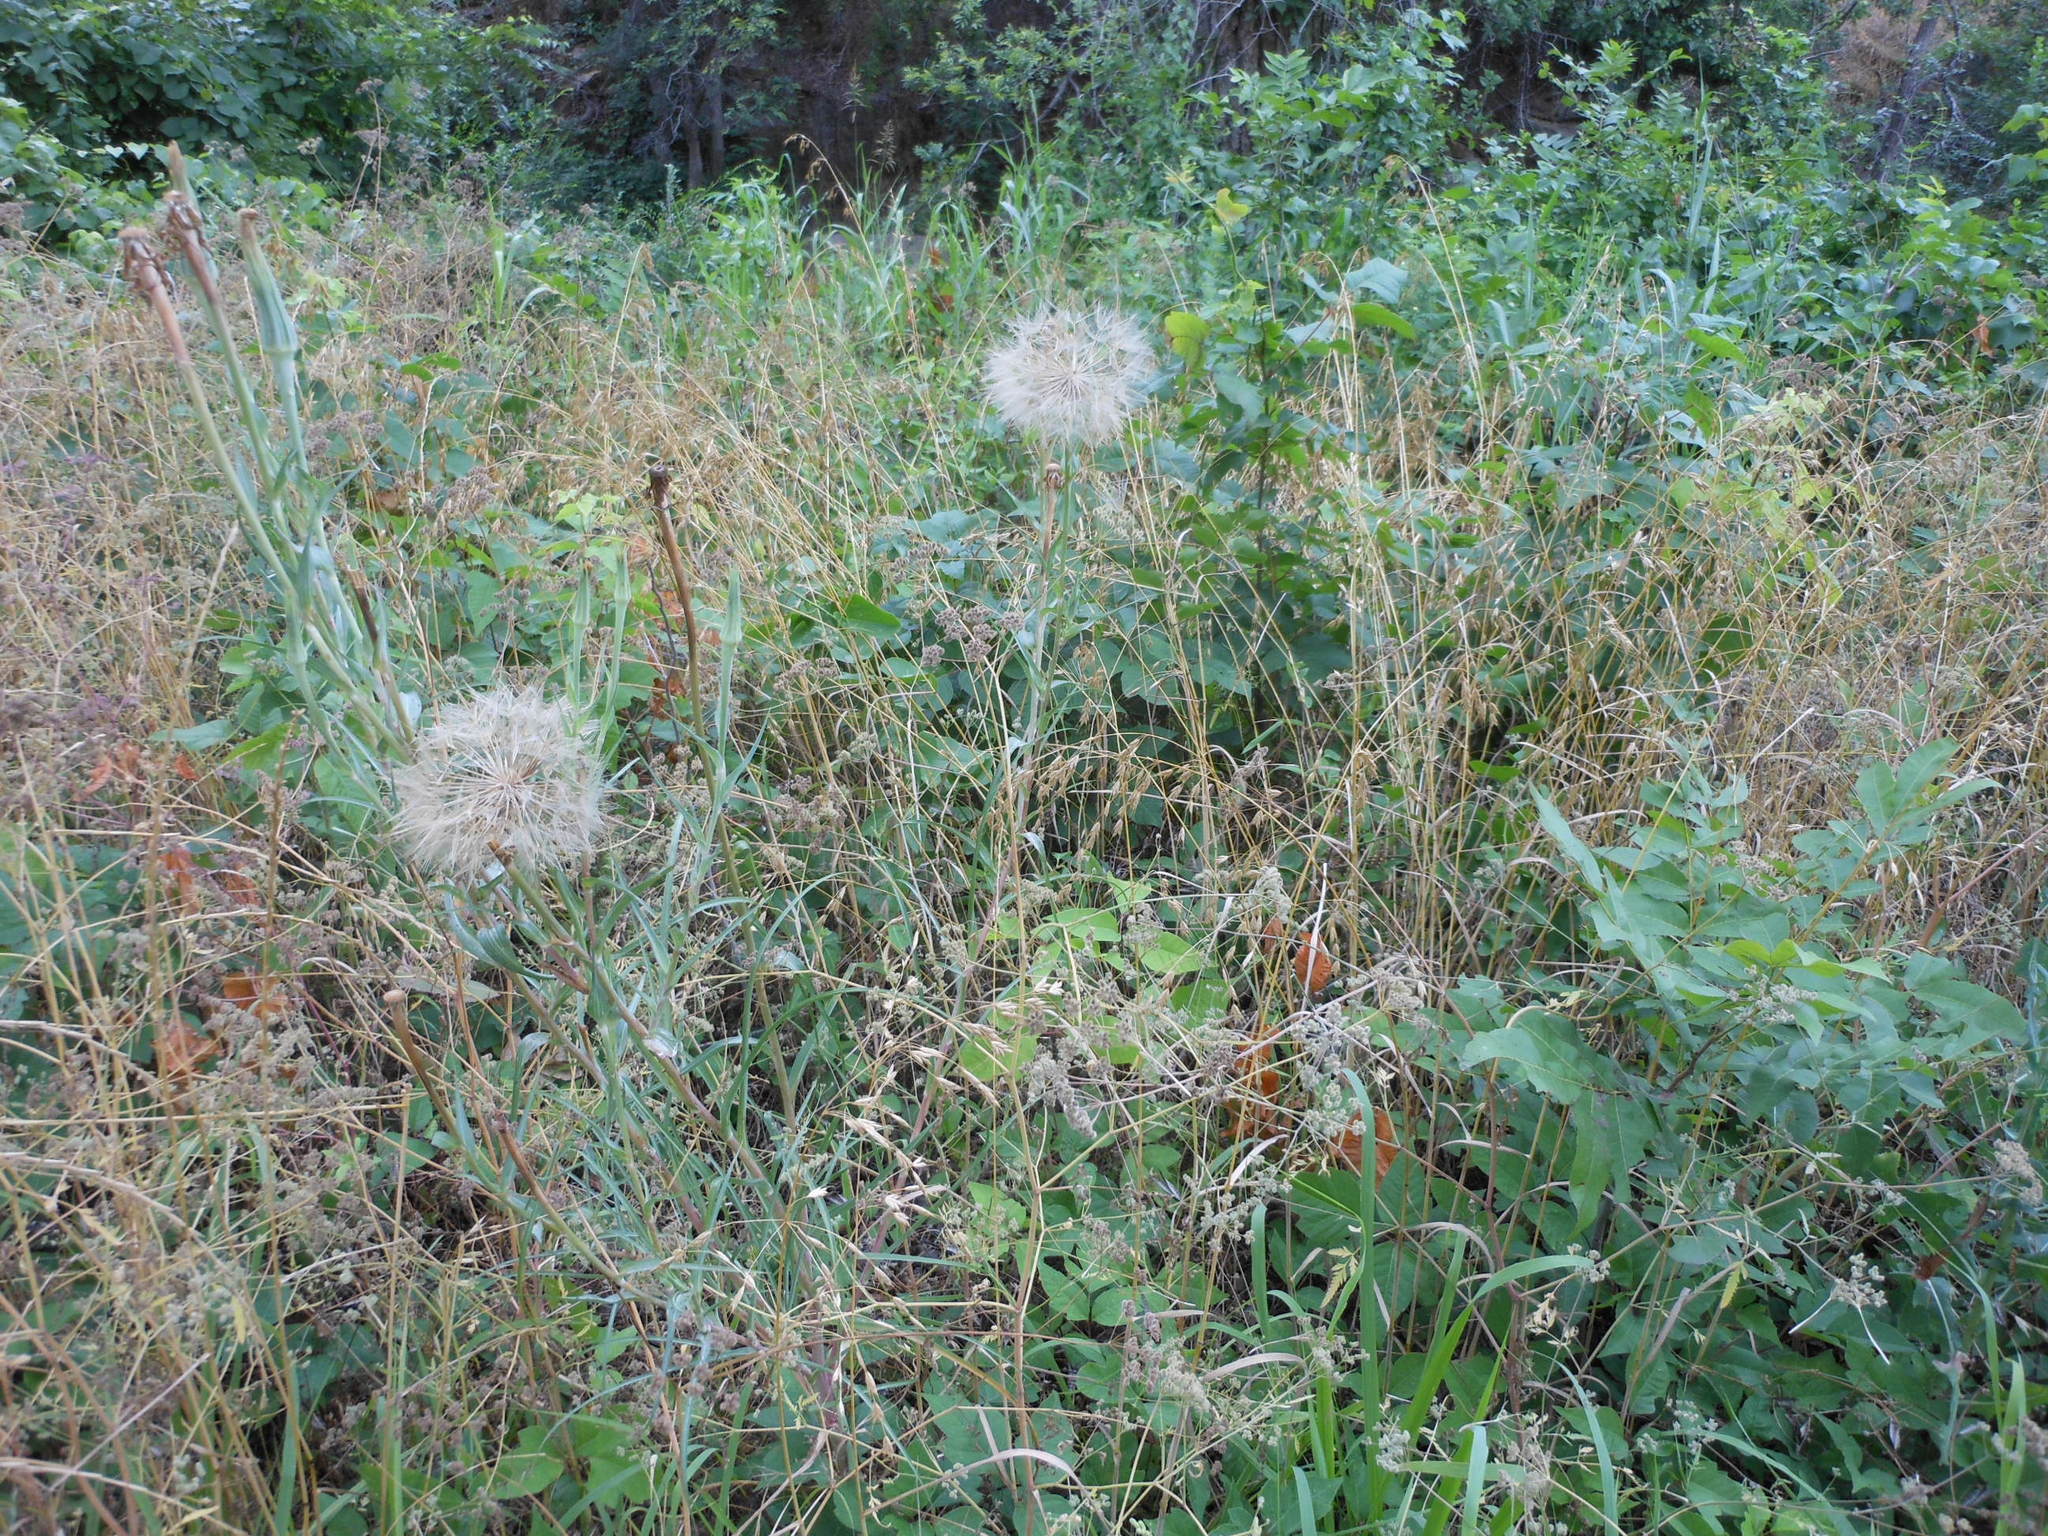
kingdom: Plantae
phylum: Tracheophyta
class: Magnoliopsida
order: Asterales
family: Asteraceae
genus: Tragopogon
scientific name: Tragopogon dubius
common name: Yellow salsify
